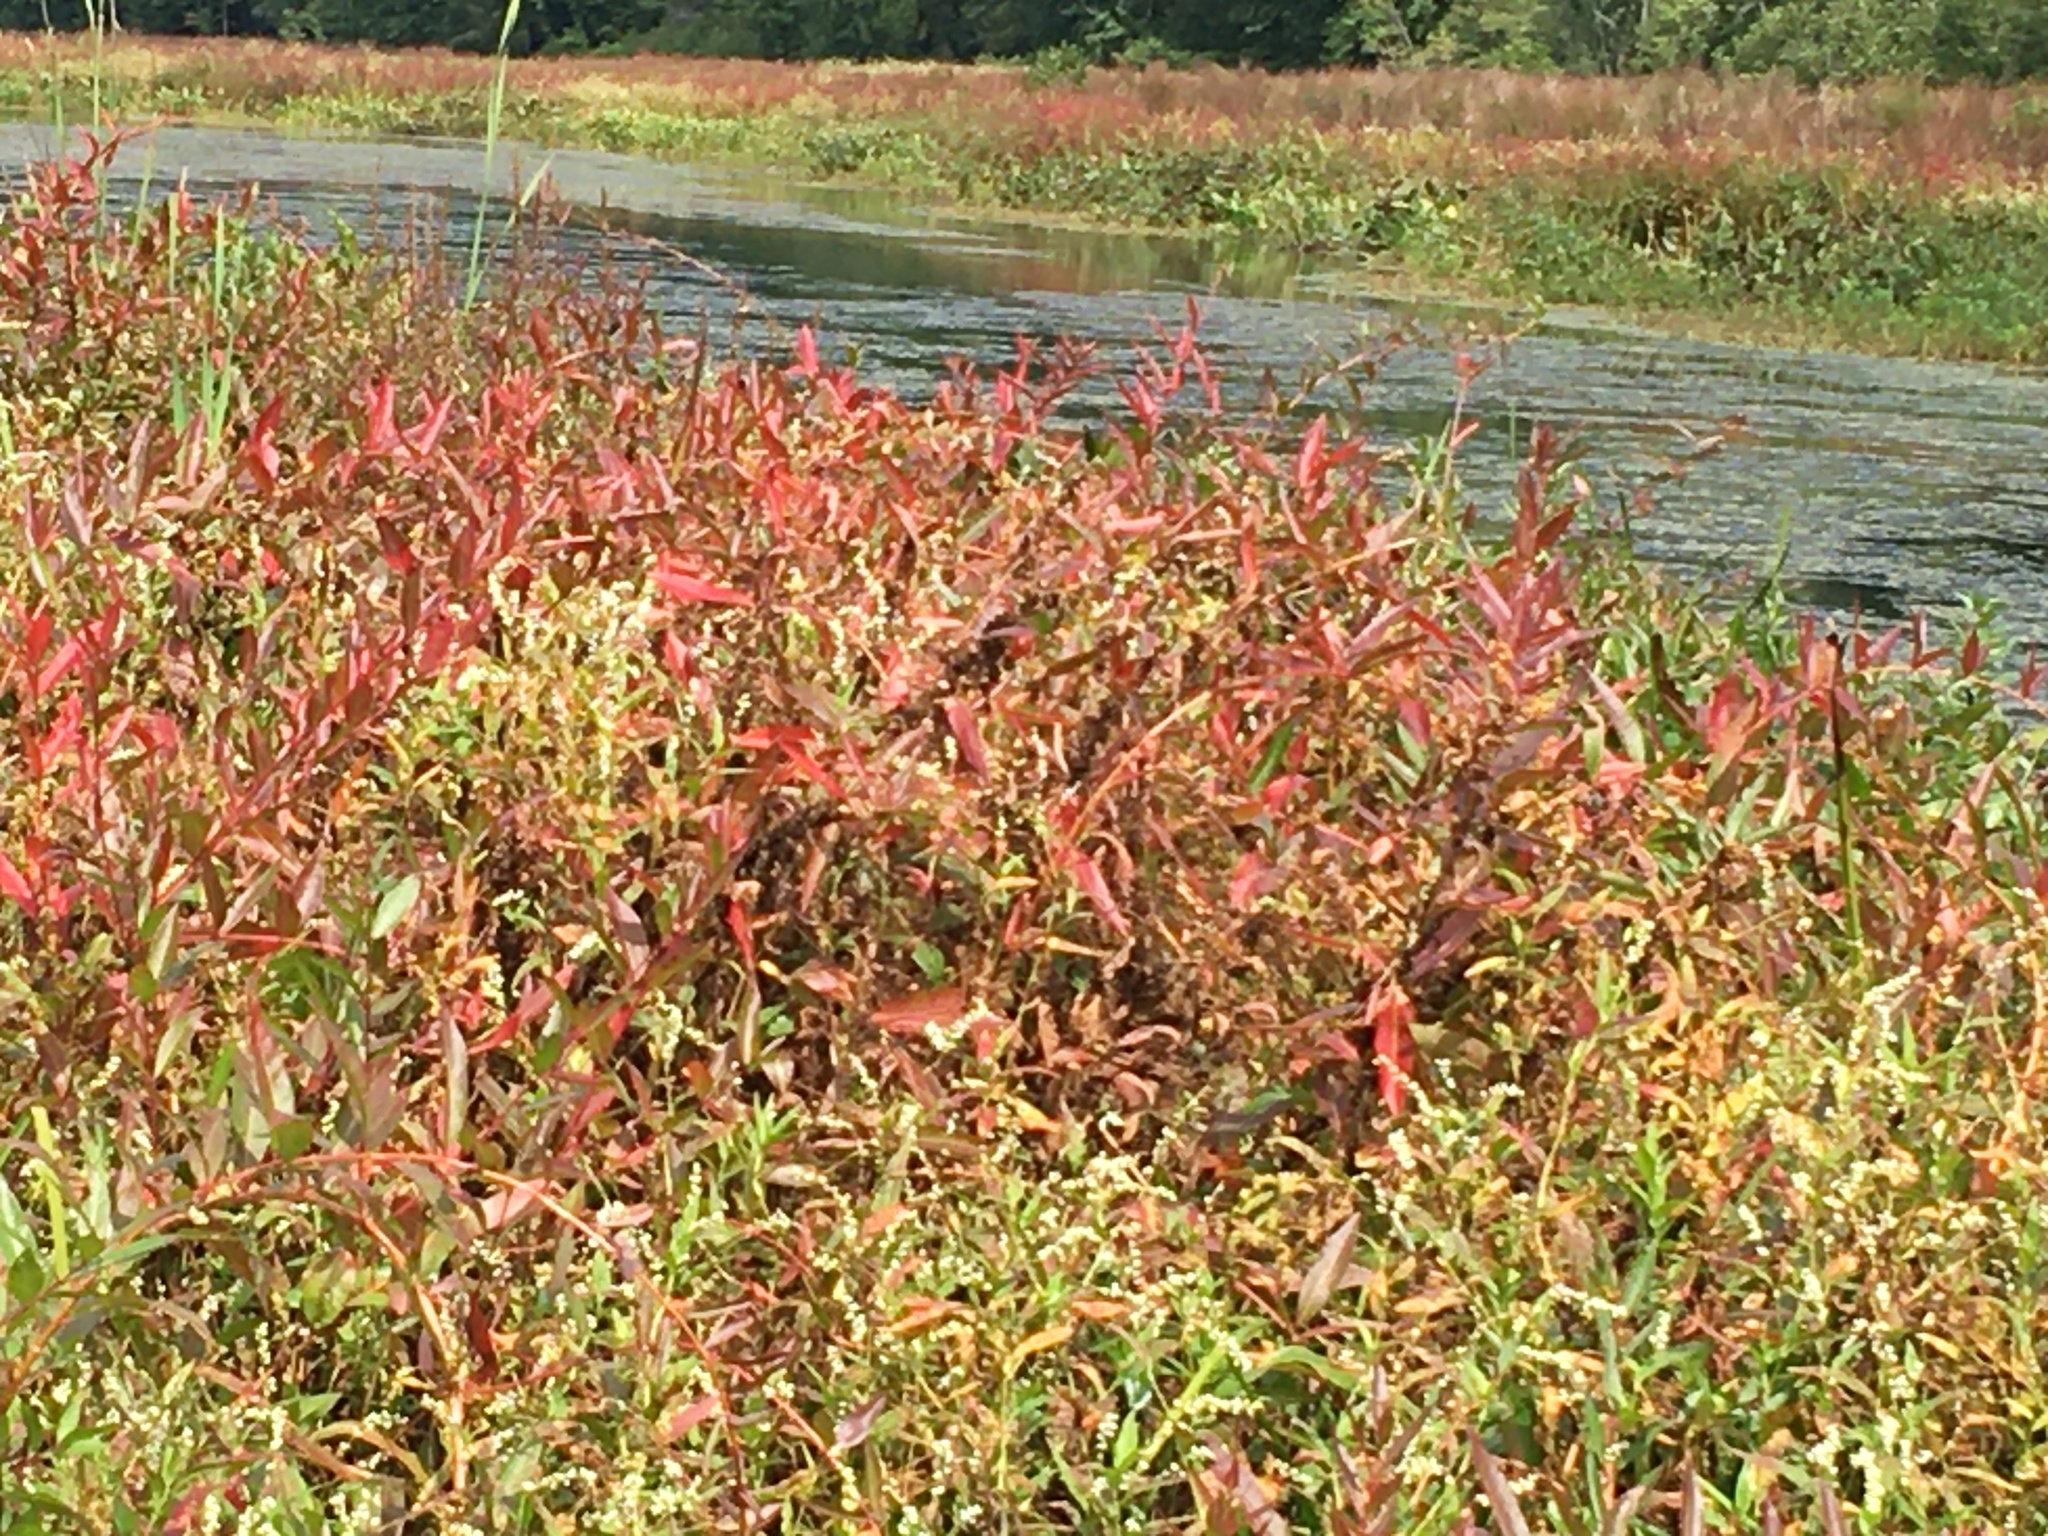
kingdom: Plantae
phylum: Tracheophyta
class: Magnoliopsida
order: Myrtales
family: Lythraceae
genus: Decodon
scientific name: Decodon verticillatus
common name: Hairy swamp loosestrife
